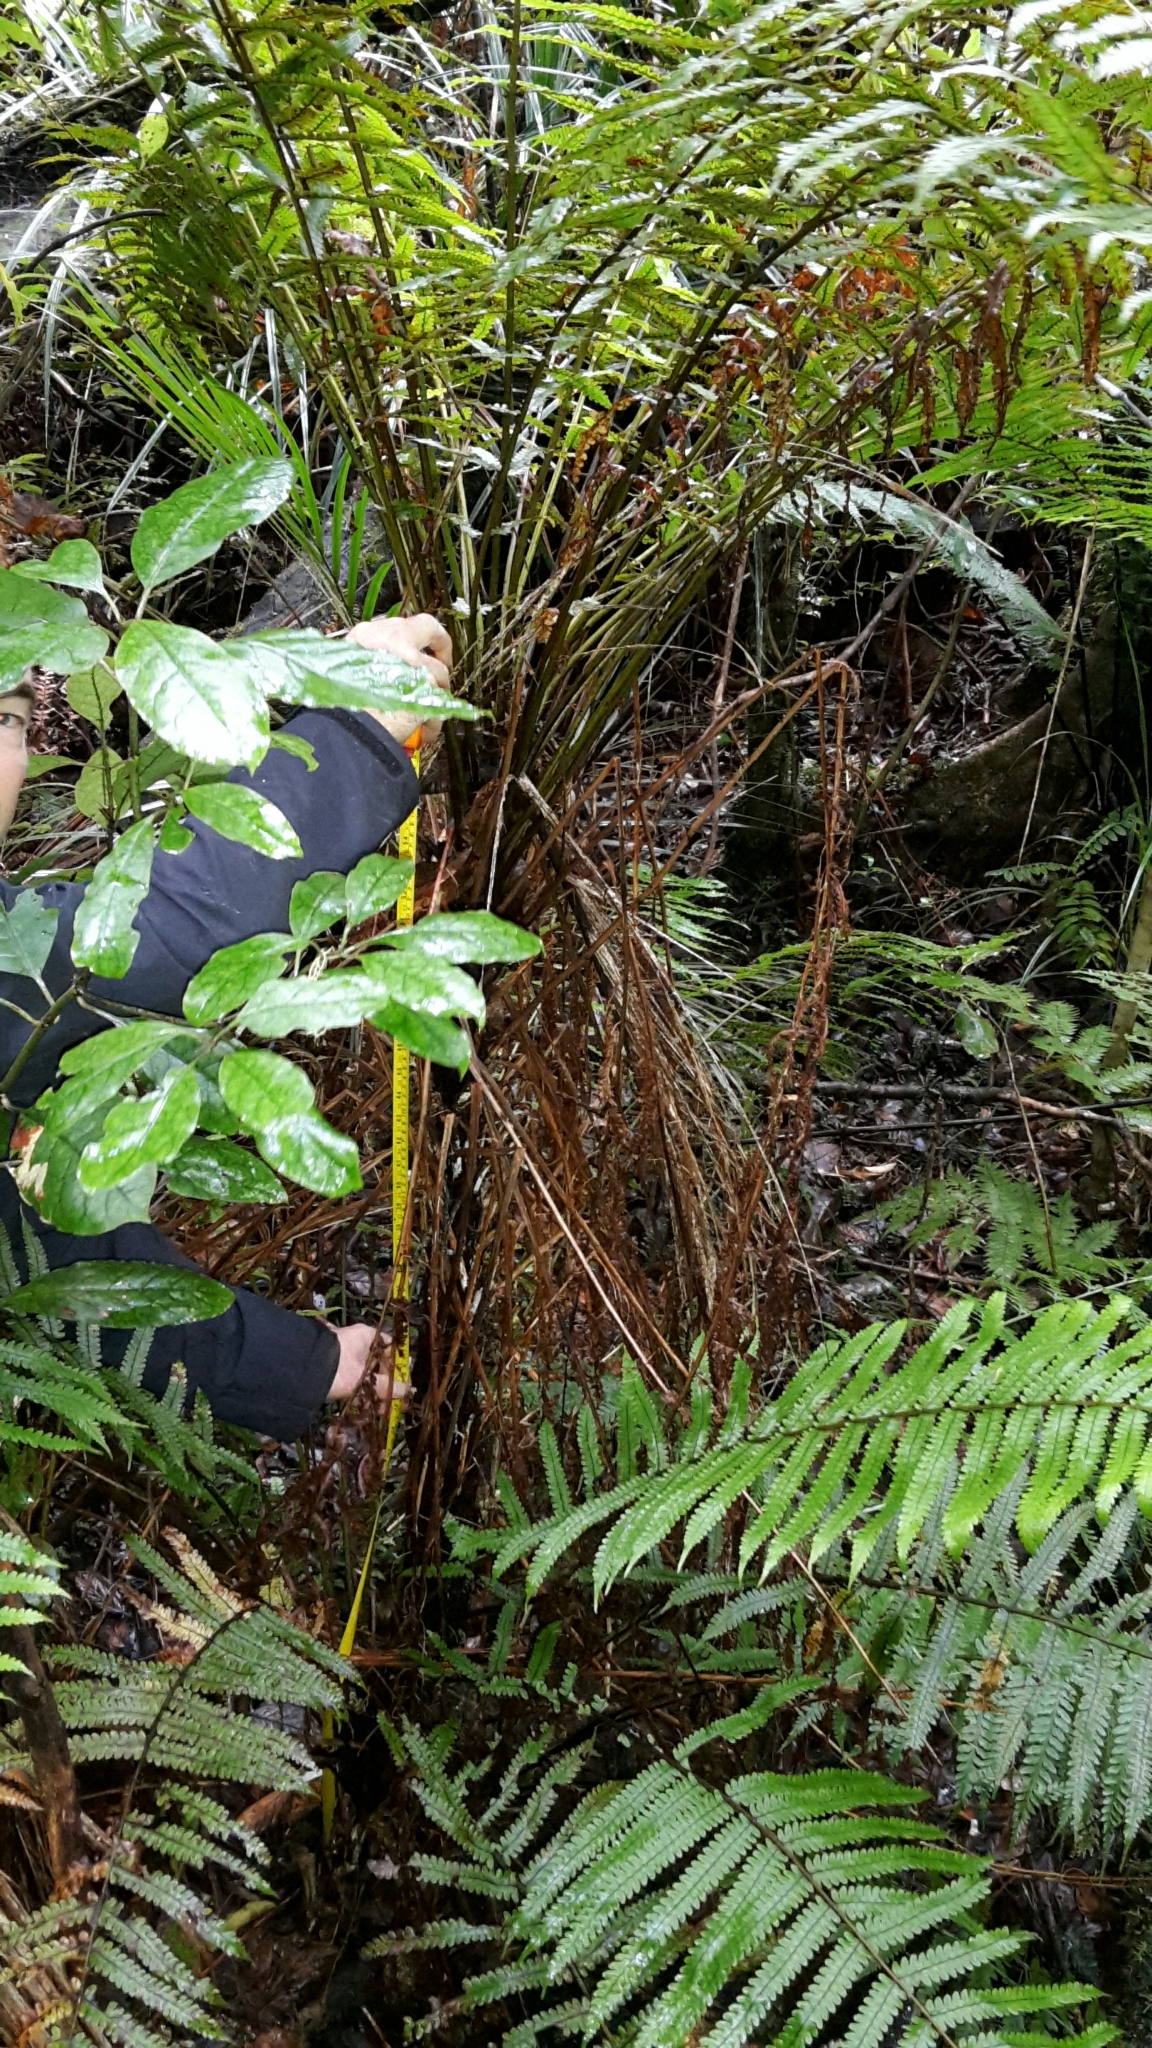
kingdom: Plantae
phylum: Tracheophyta
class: Polypodiopsida
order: Polypodiales
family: Thelypteridaceae
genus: Pakau
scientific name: Pakau pennigera
